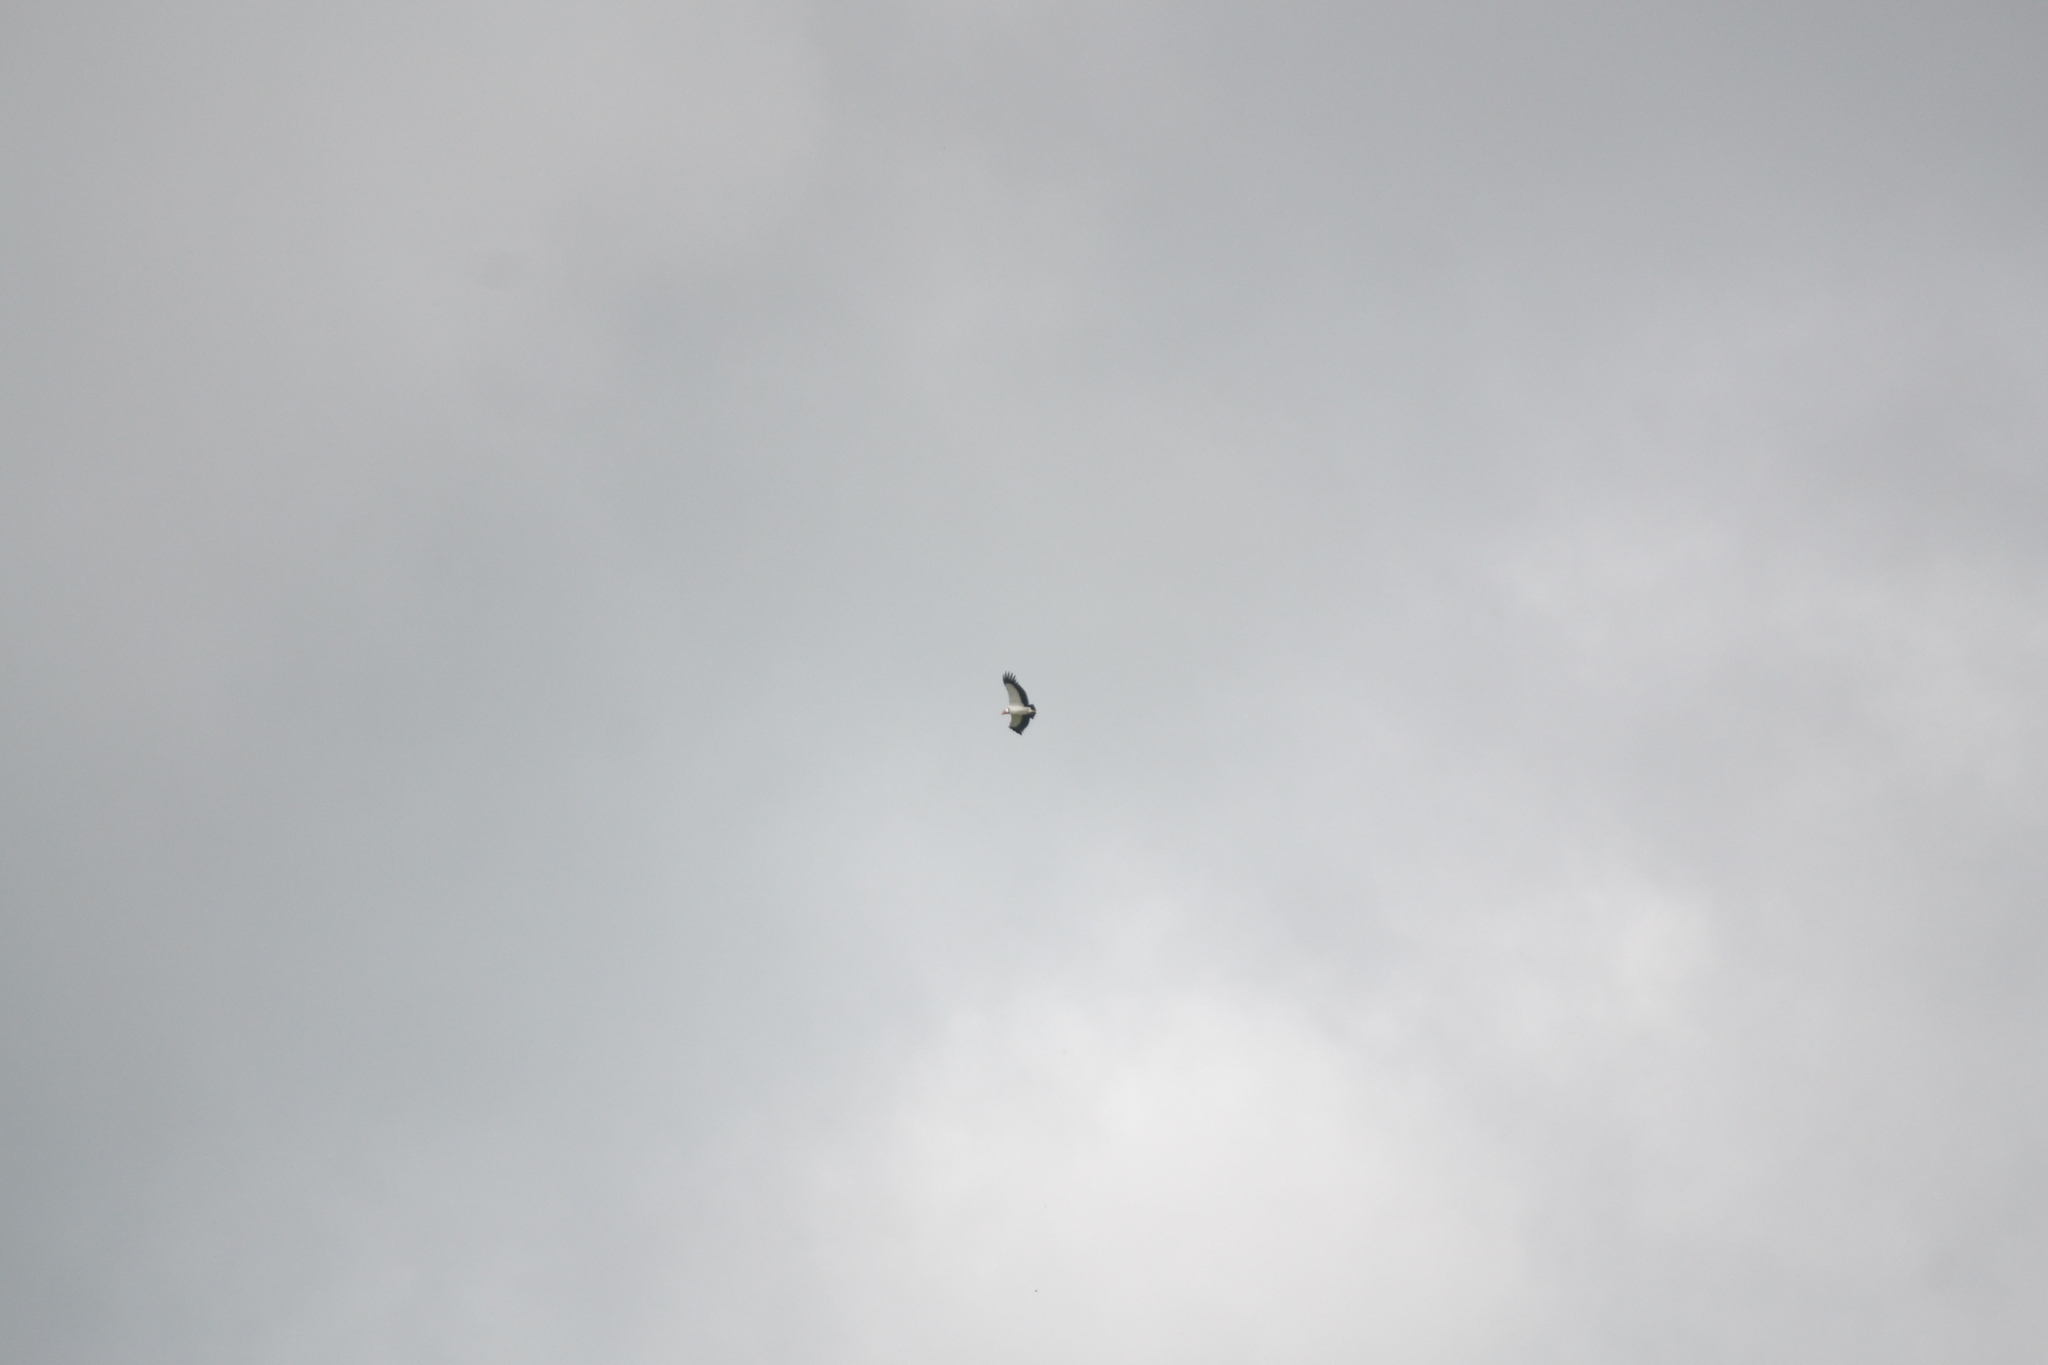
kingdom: Animalia
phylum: Chordata
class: Aves
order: Accipitriformes
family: Cathartidae
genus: Sarcoramphus
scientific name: Sarcoramphus papa
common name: King vulture
